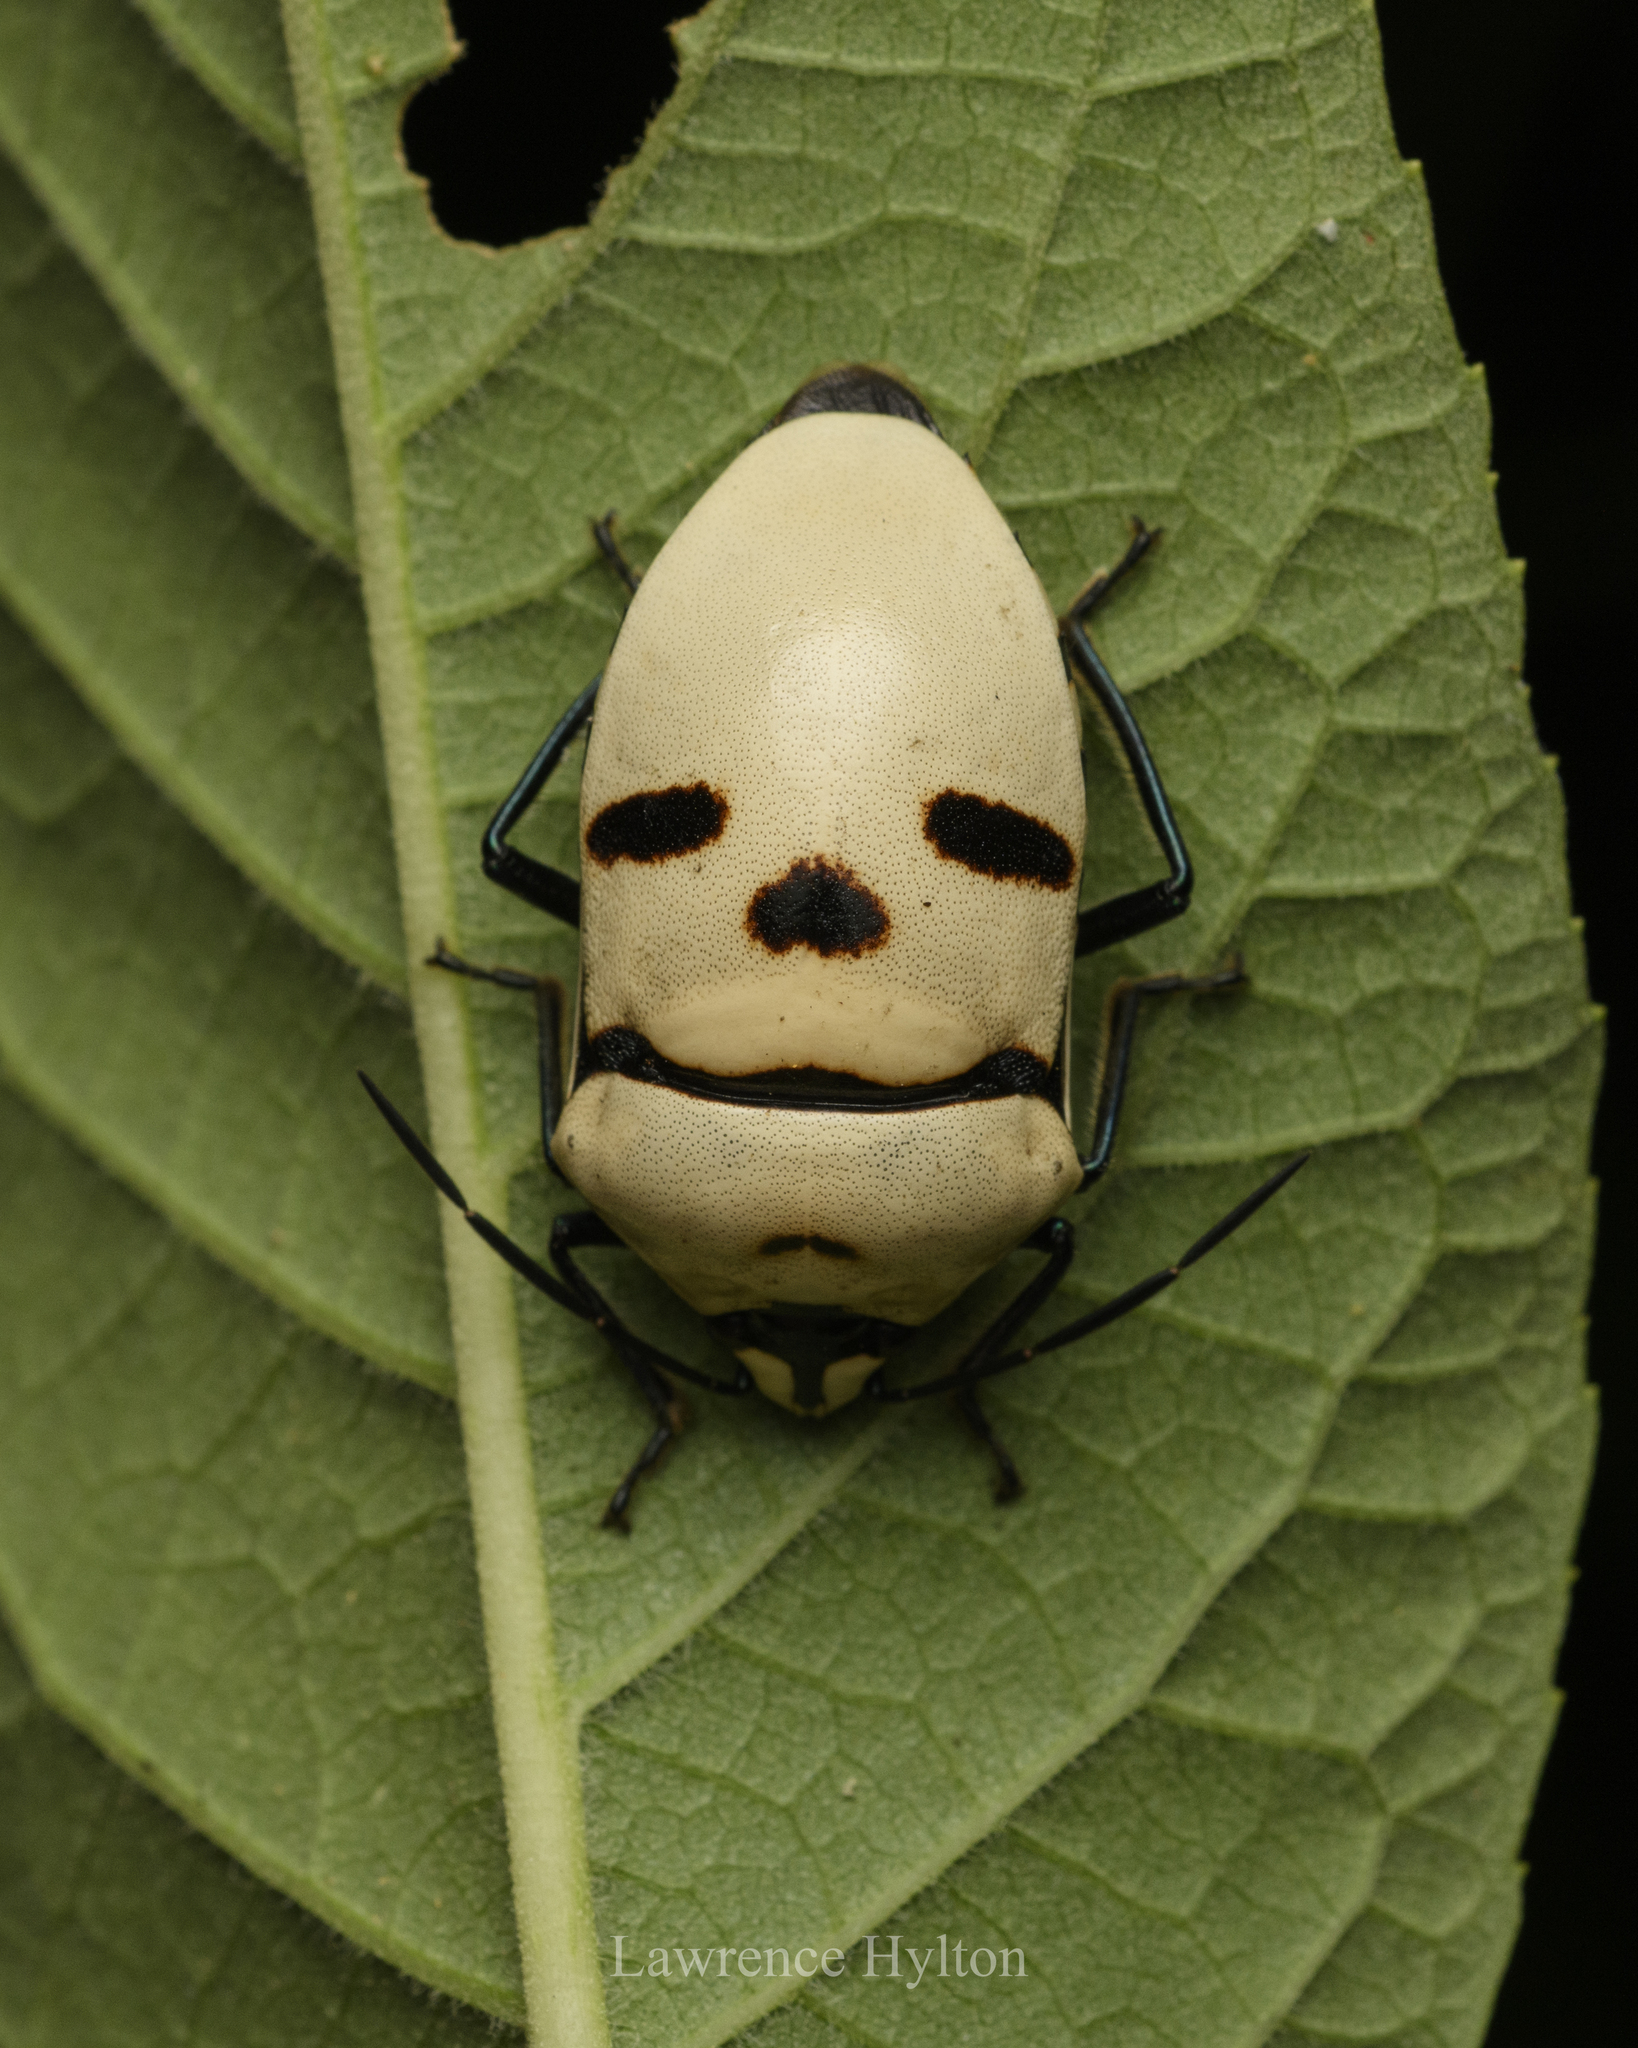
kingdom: Animalia
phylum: Arthropoda
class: Insecta
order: Hemiptera
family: Scutelleridae
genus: Eucorysses
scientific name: Eucorysses grandis
